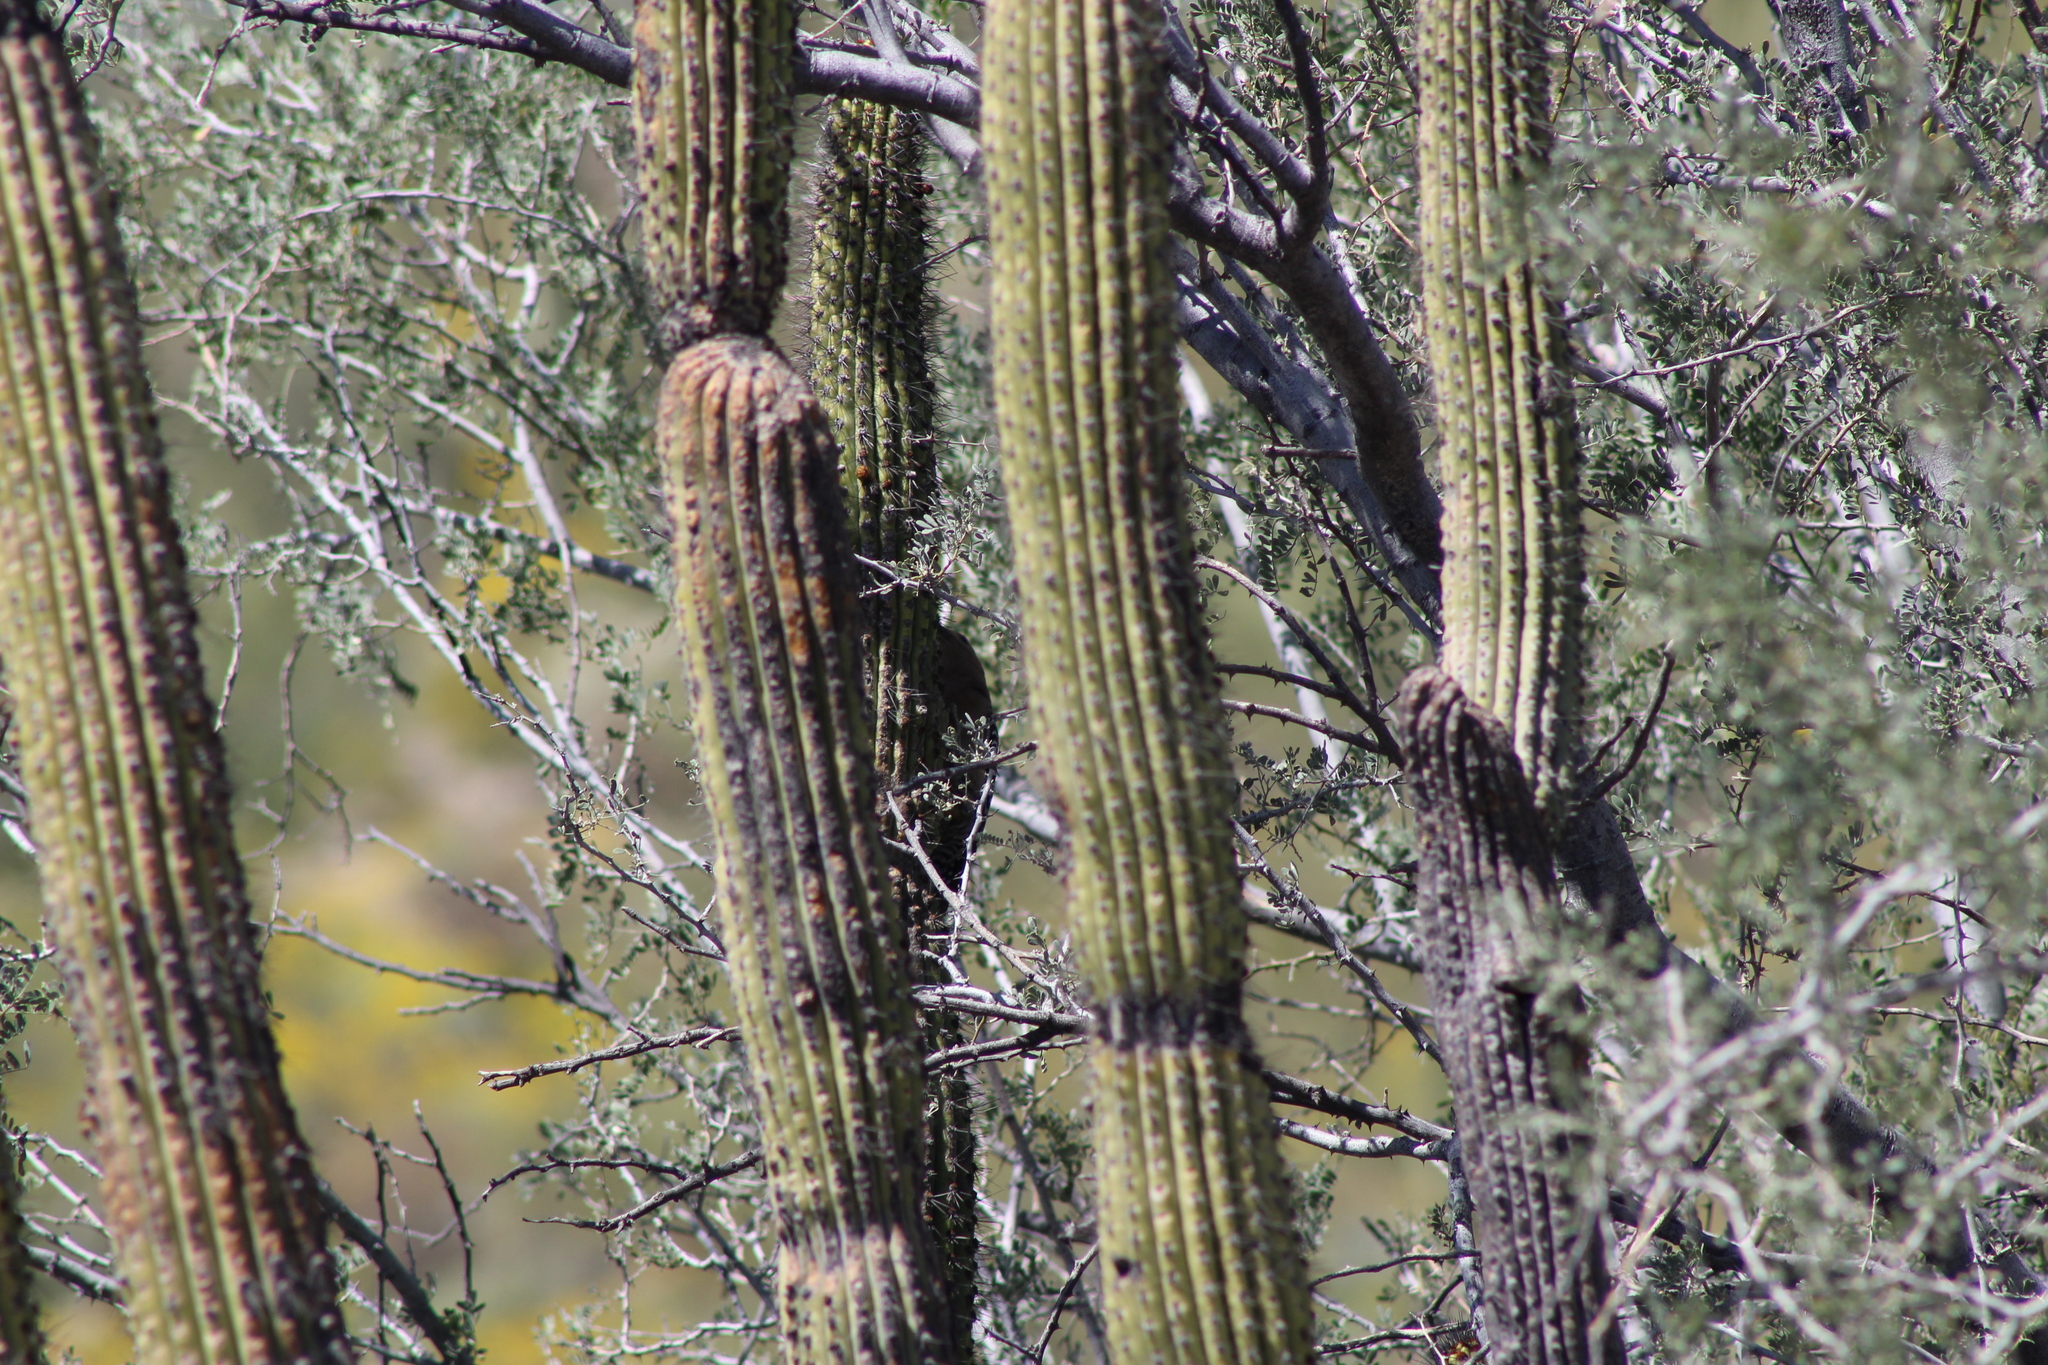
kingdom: Plantae
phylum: Tracheophyta
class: Magnoliopsida
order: Caryophyllales
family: Cactaceae
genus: Stenocereus
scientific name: Stenocereus thurberi
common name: Organ pipe cactus
